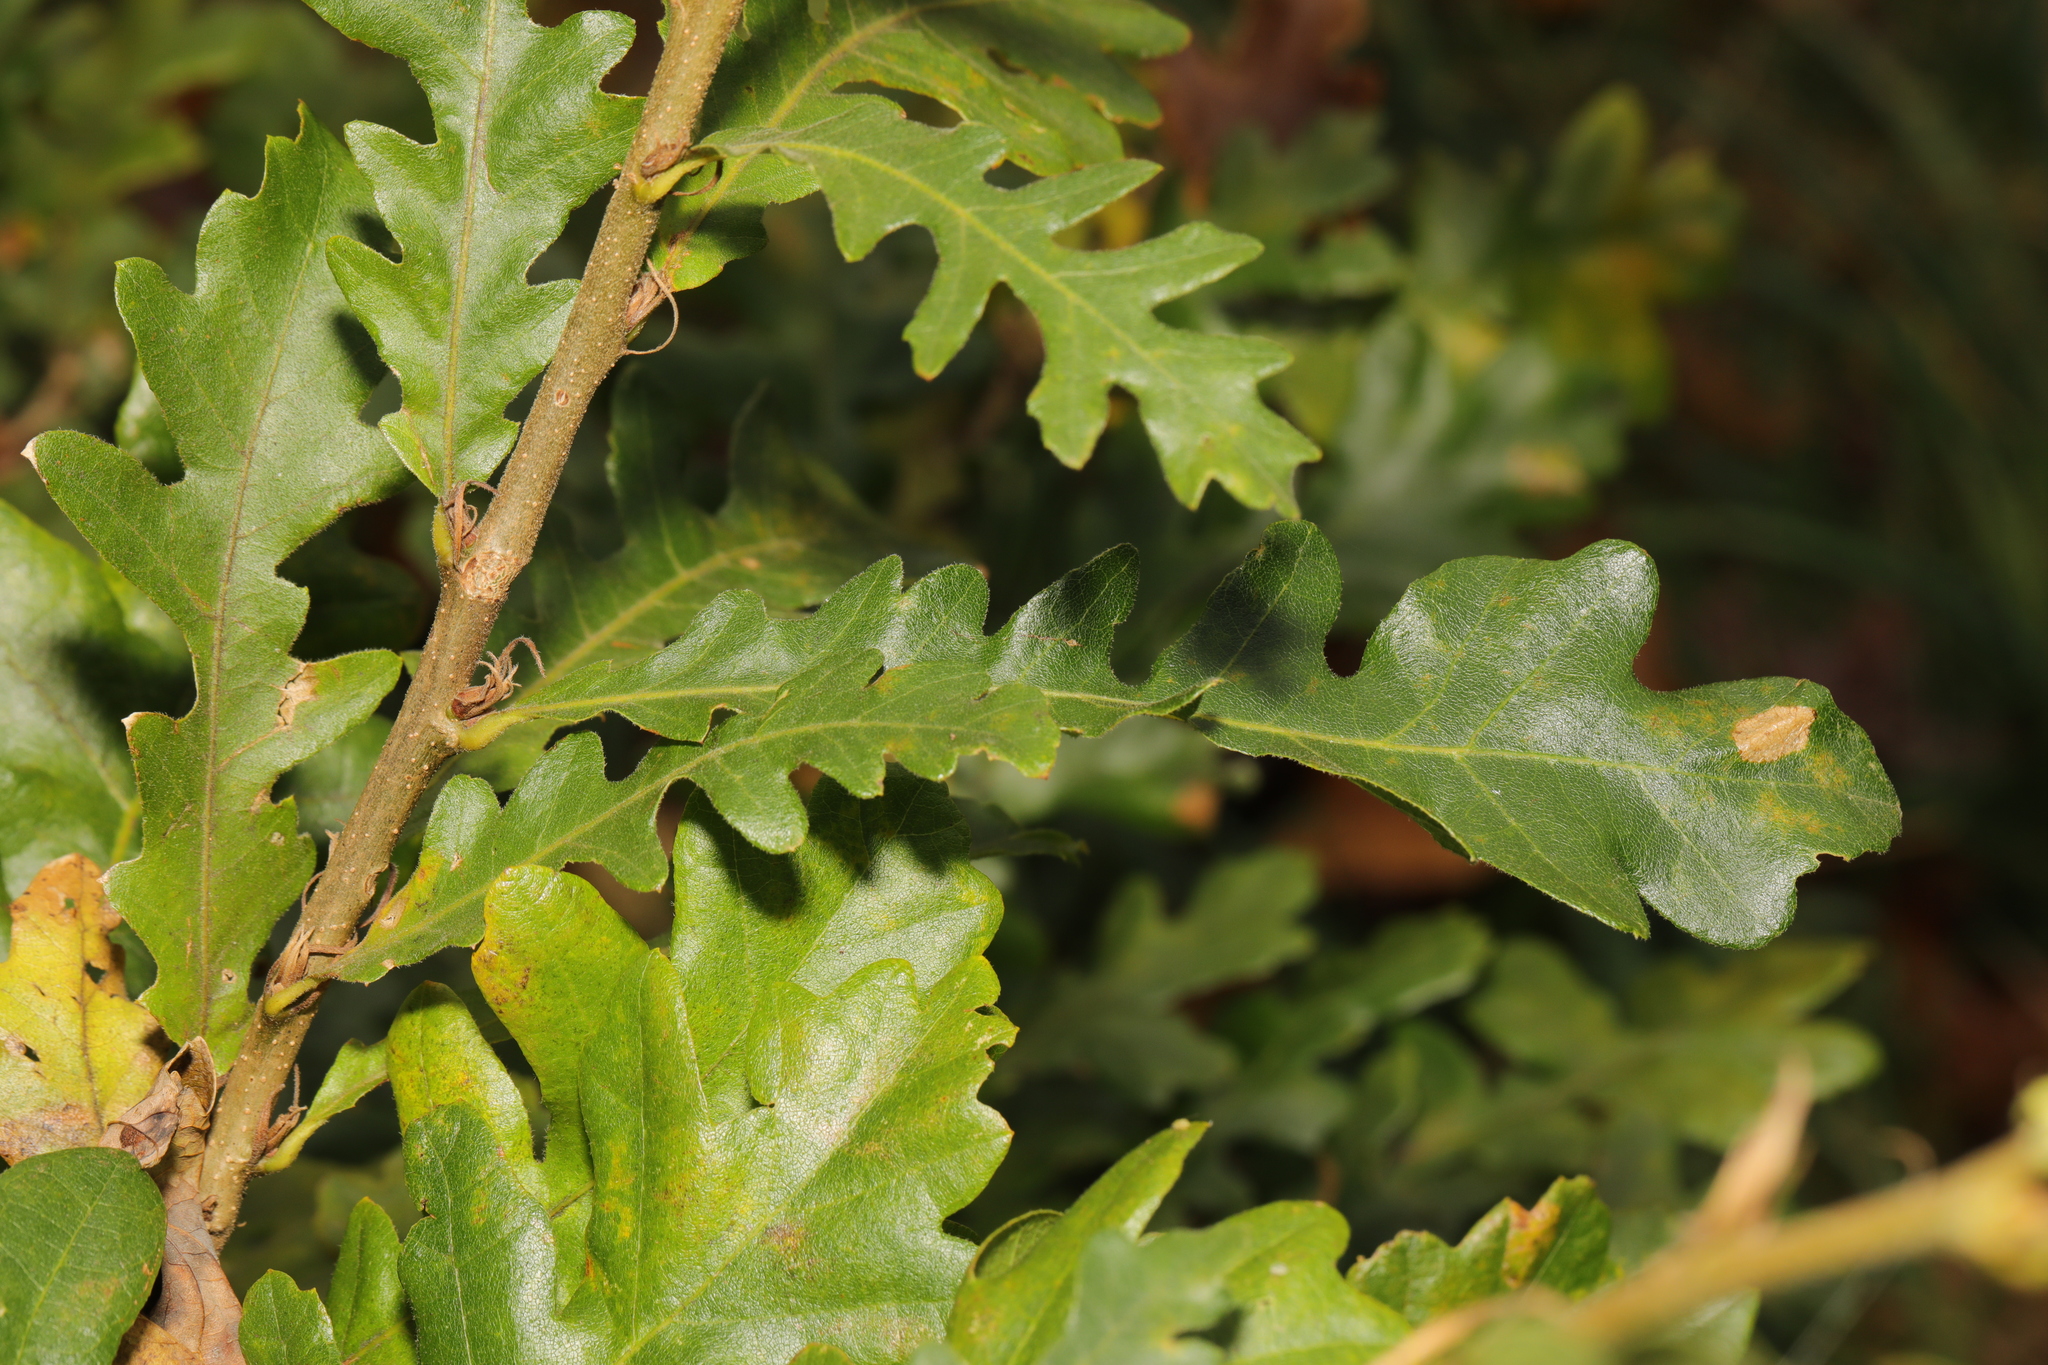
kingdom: Plantae
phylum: Tracheophyta
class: Magnoliopsida
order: Fagales
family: Fagaceae
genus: Quercus
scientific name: Quercus cerris
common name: Turkey oak
